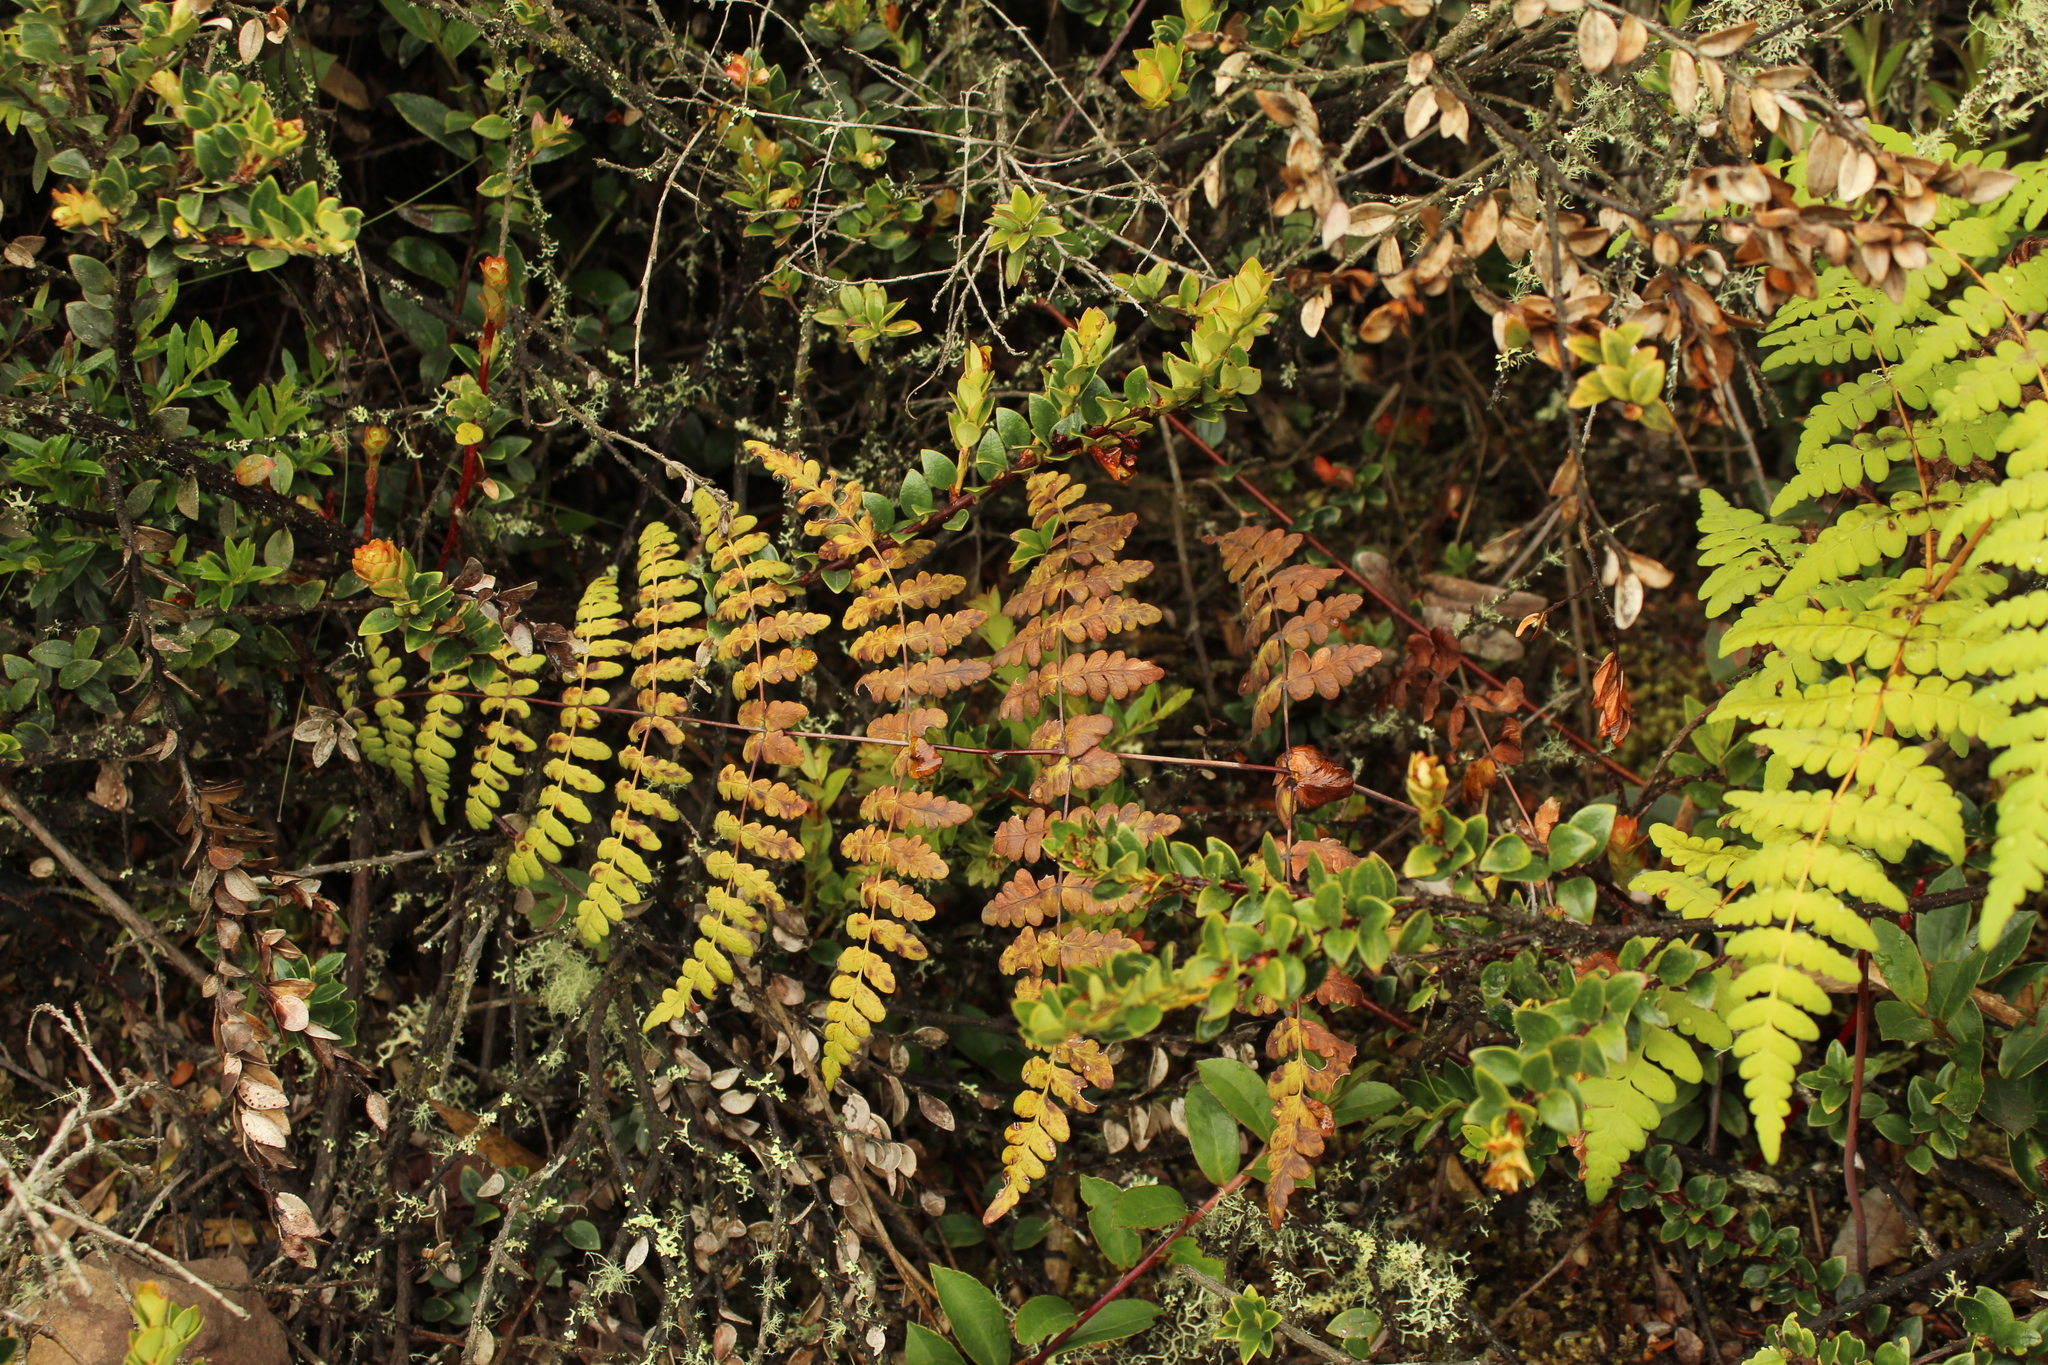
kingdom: Plantae
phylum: Tracheophyta
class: Polypodiopsida
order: Polypodiales
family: Dennstaedtiaceae
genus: Histiopteris
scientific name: Histiopteris incisa
